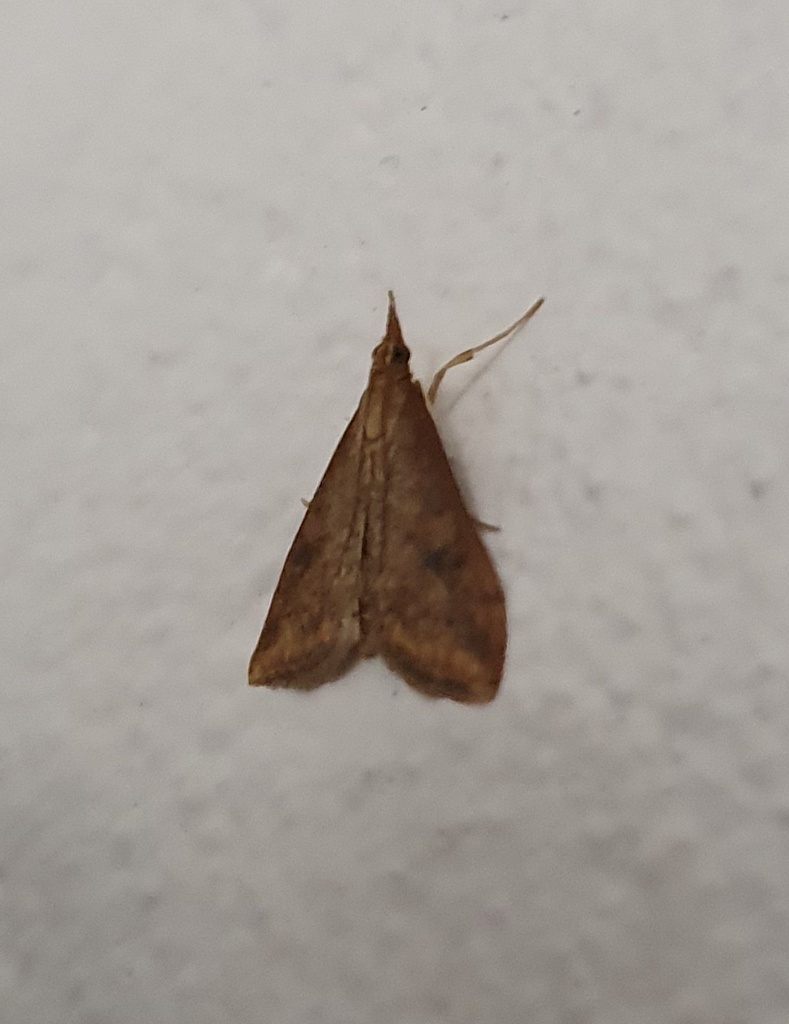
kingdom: Animalia
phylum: Arthropoda
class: Insecta
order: Lepidoptera
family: Crambidae
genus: Udea
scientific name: Udea ferrugalis
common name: Rusty dot
